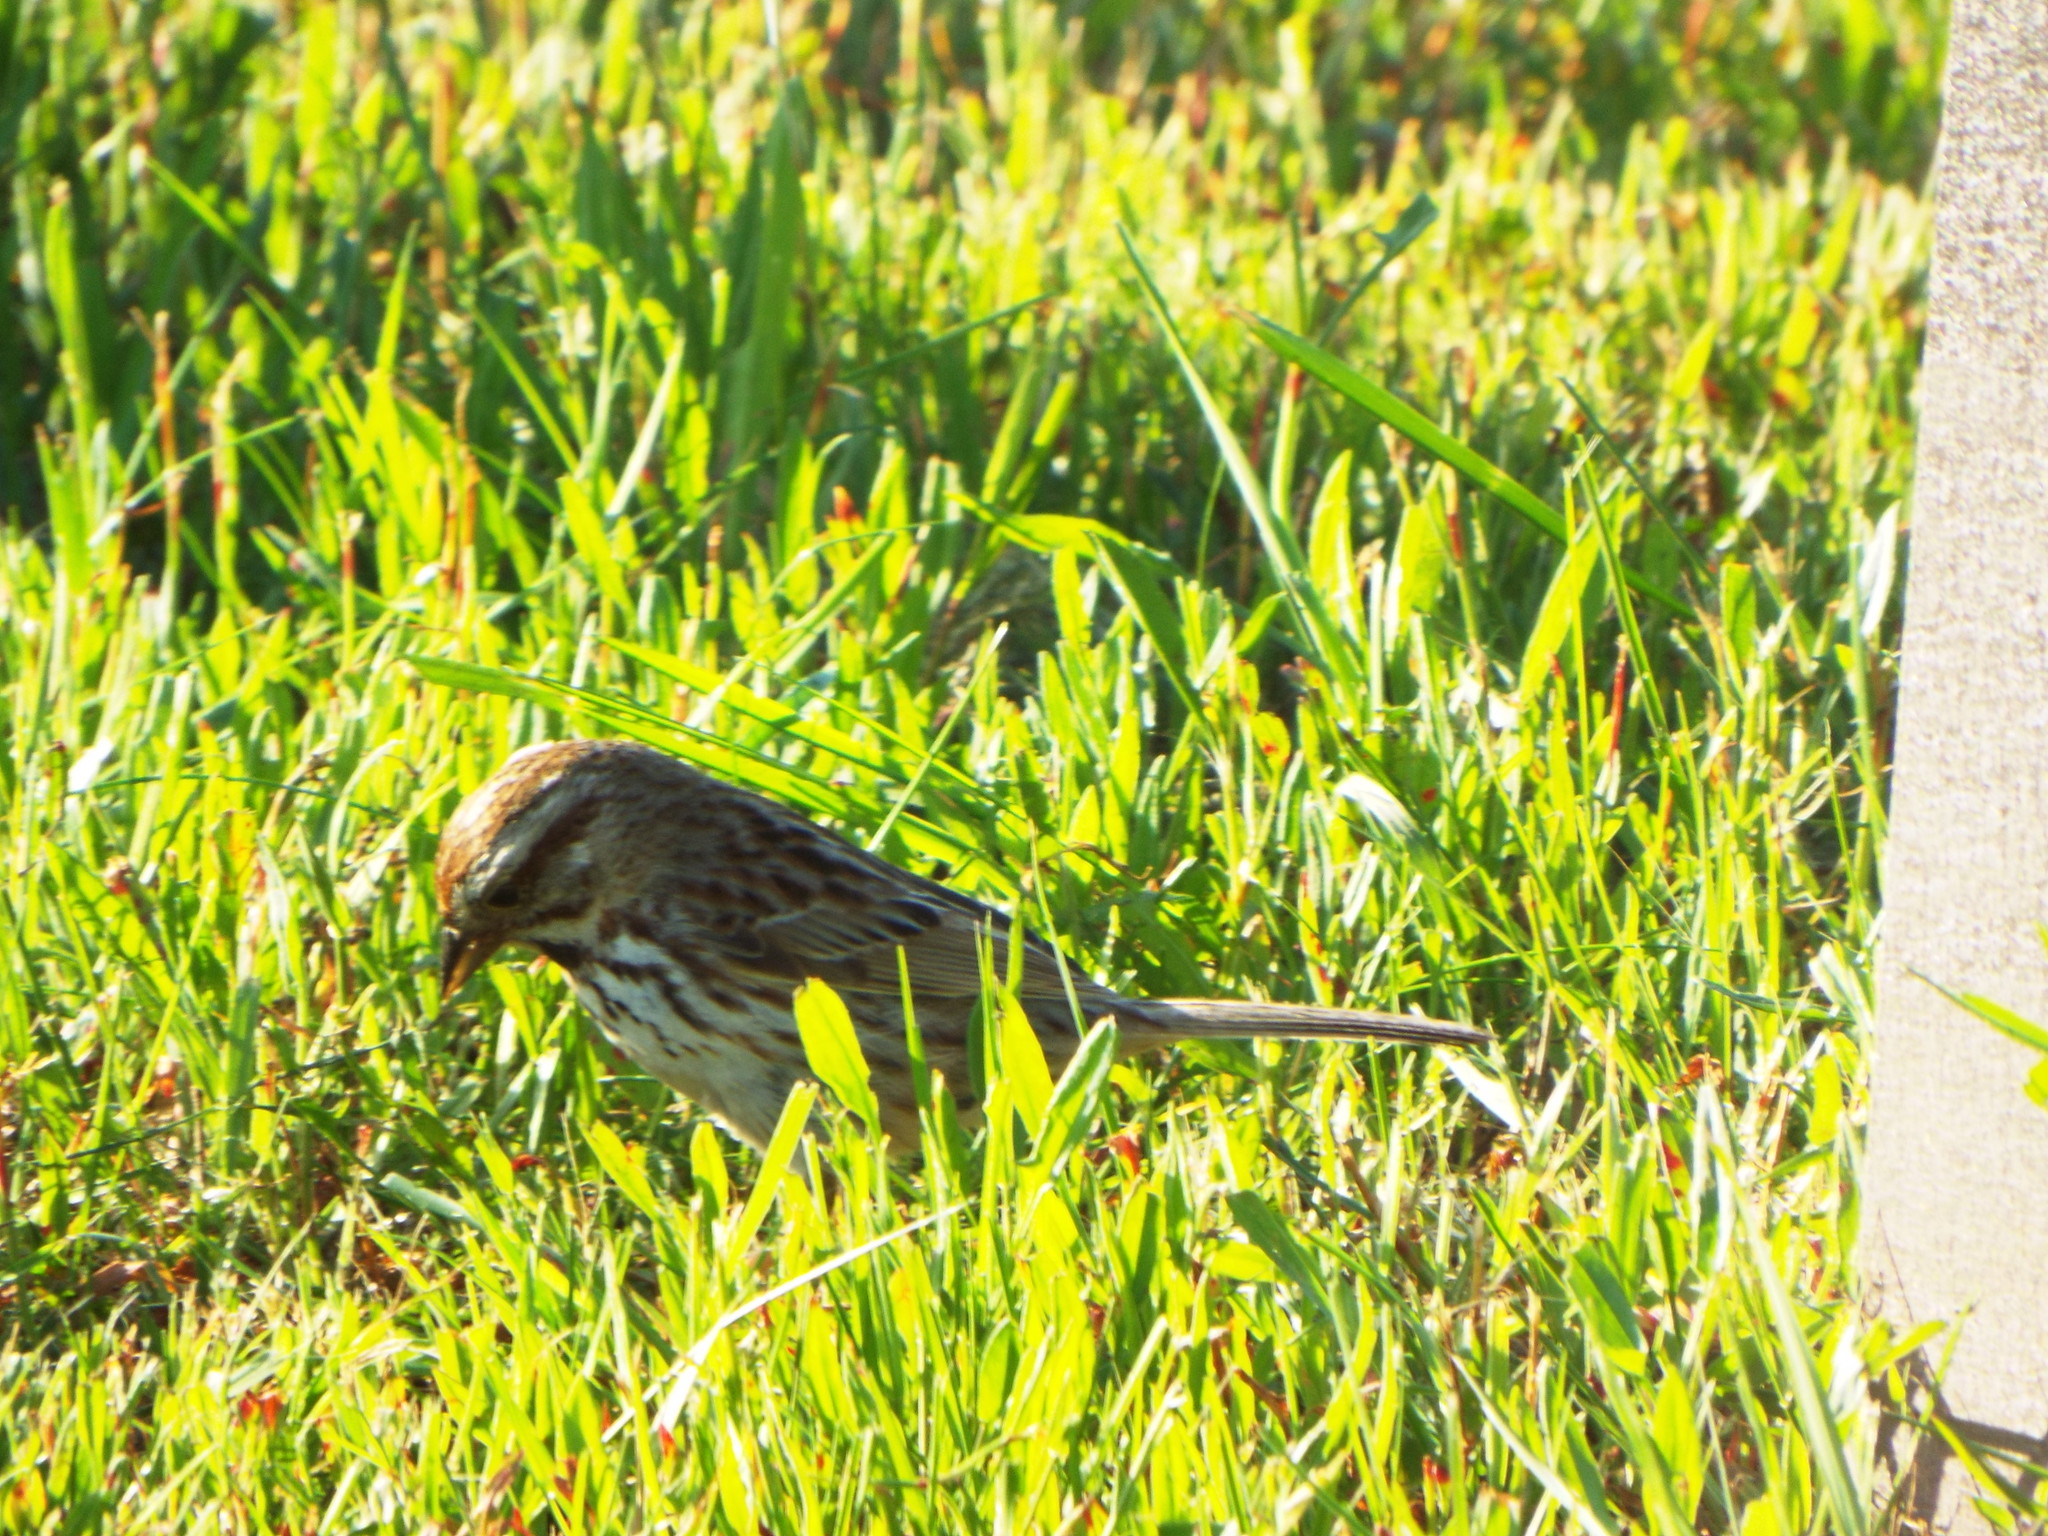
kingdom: Animalia
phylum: Chordata
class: Aves
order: Passeriformes
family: Passerellidae
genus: Melospiza
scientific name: Melospiza melodia
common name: Song sparrow
